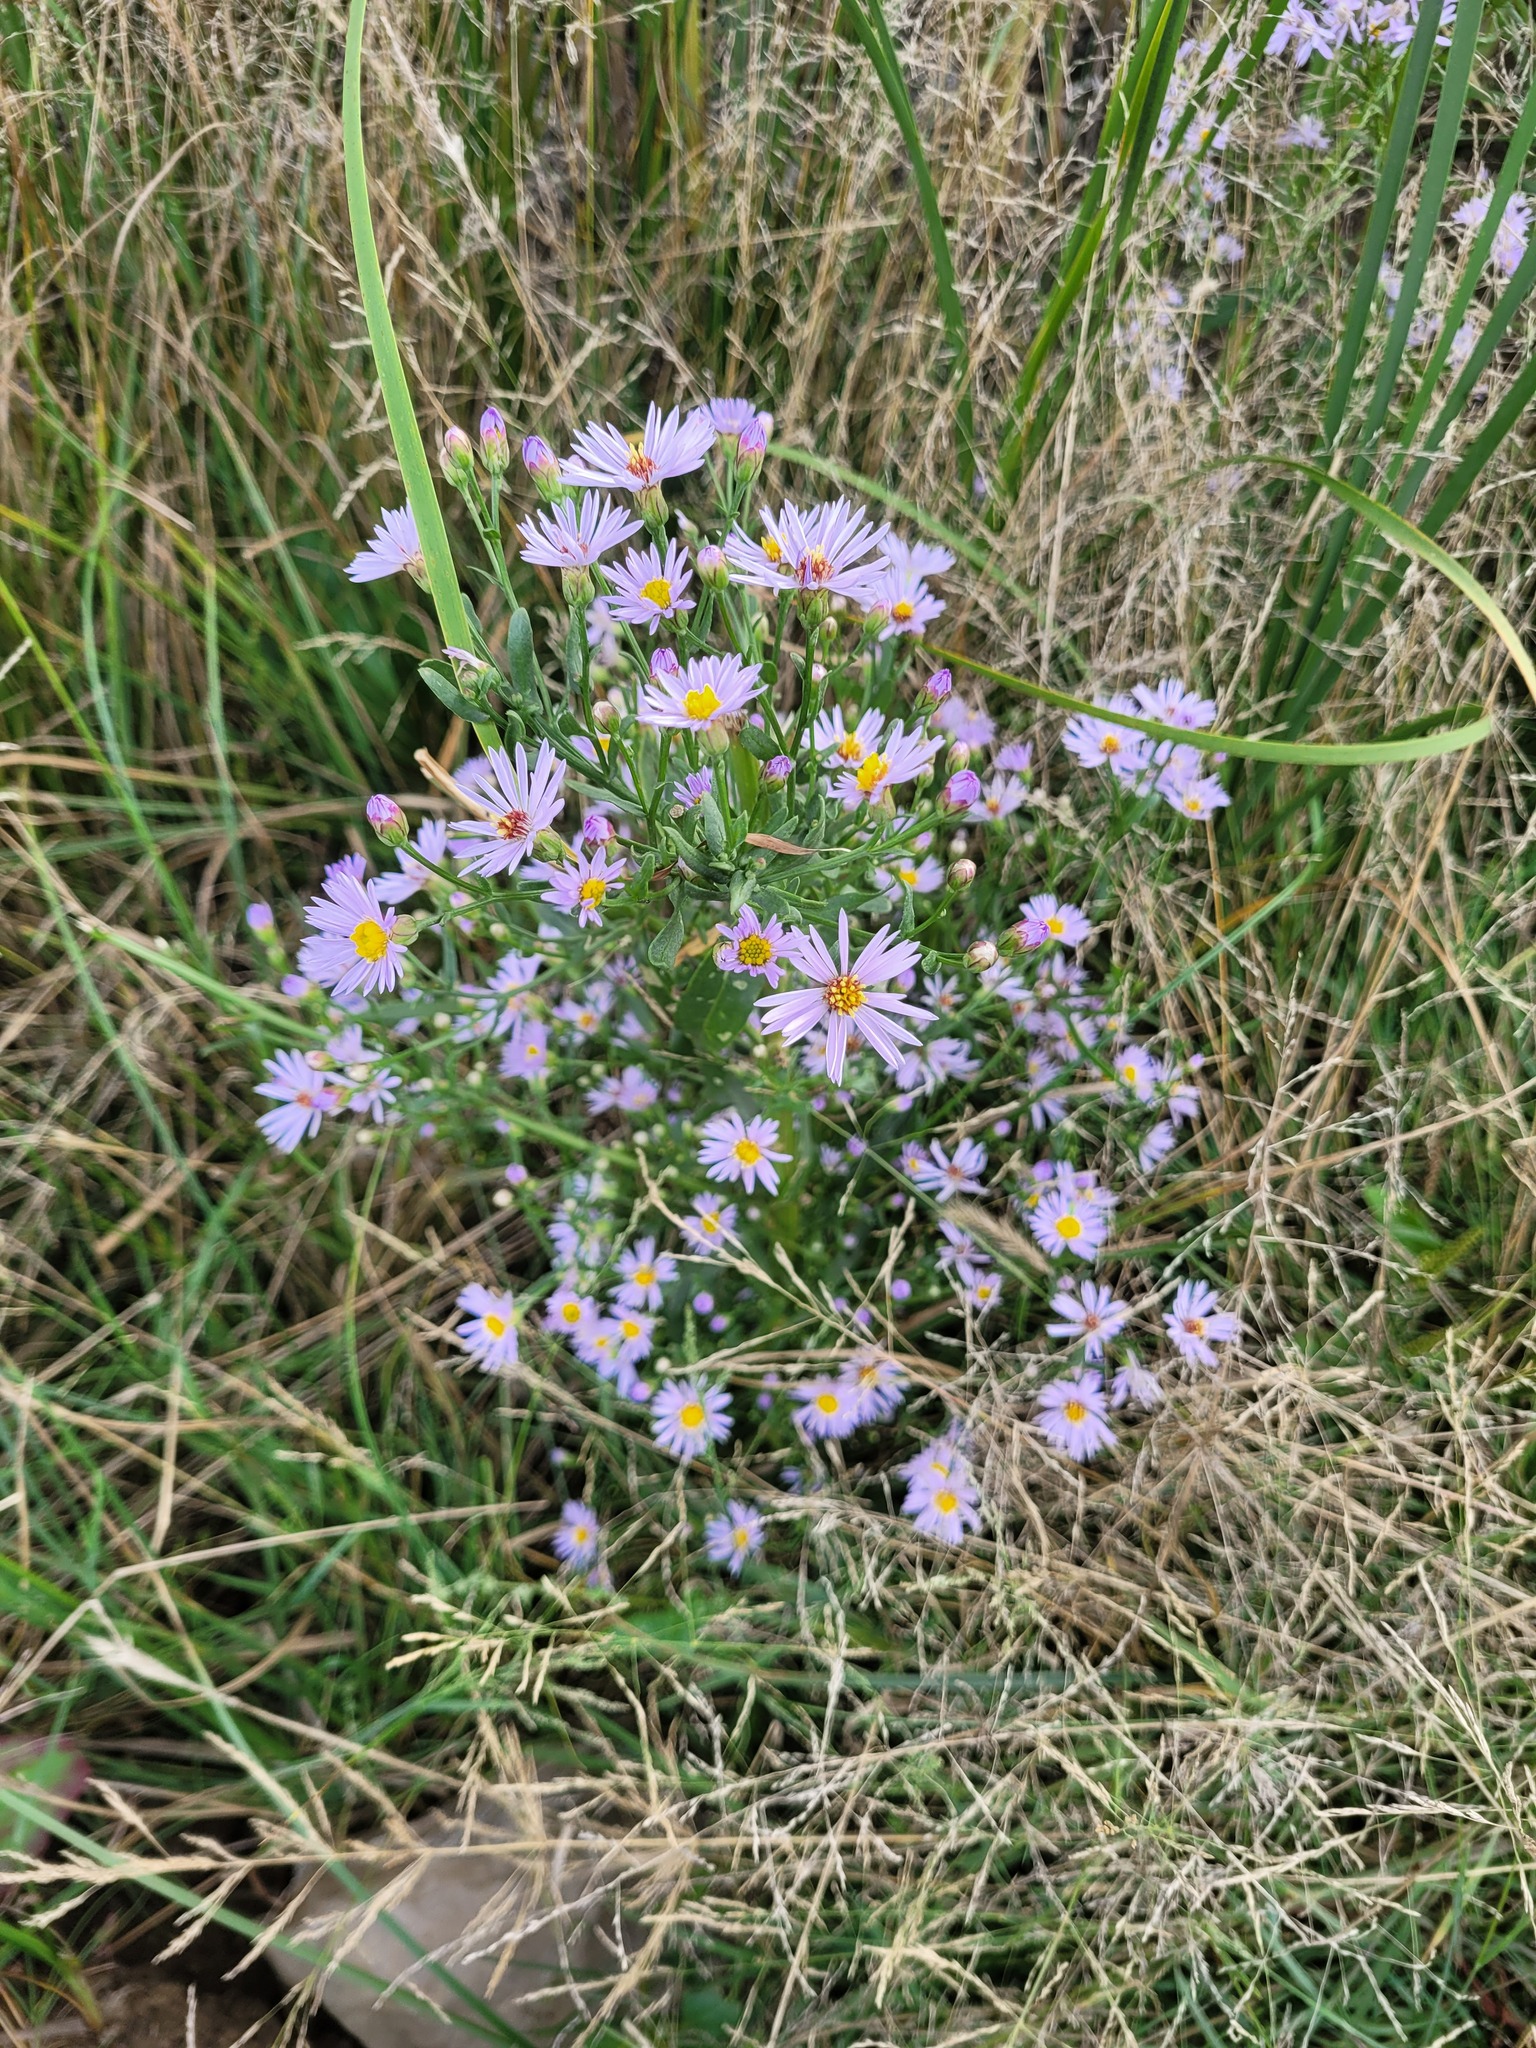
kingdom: Plantae
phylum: Tracheophyta
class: Magnoliopsida
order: Asterales
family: Asteraceae
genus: Tripolium
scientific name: Tripolium pannonicum
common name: Sea aster
